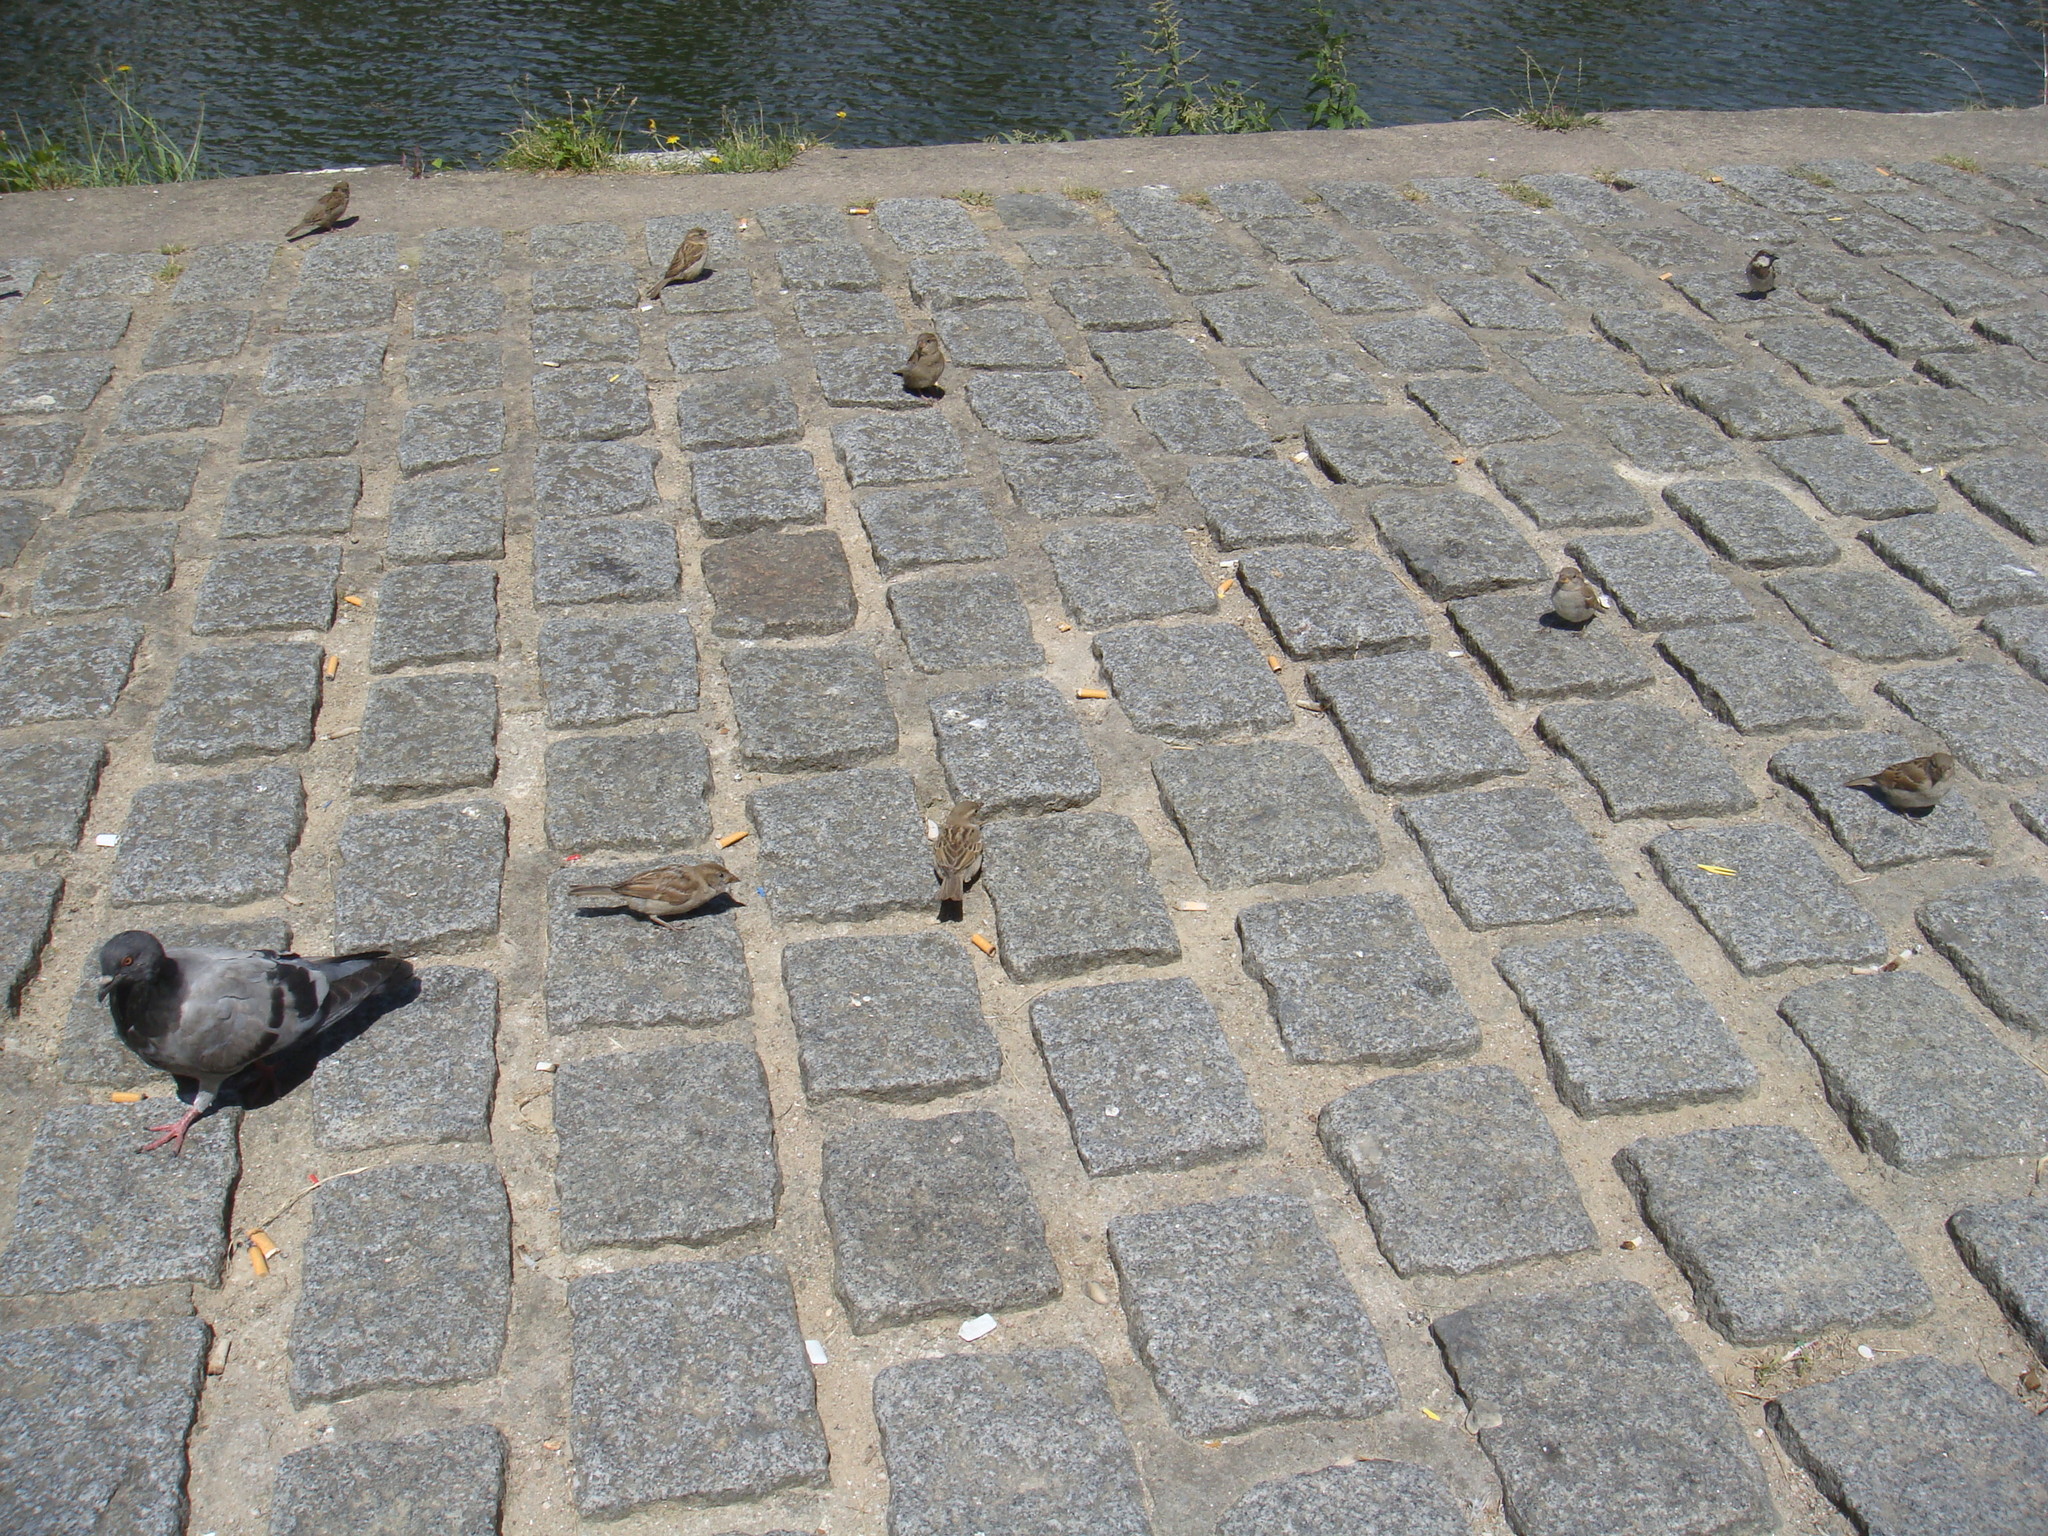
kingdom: Animalia
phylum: Chordata
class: Aves
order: Passeriformes
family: Passeridae
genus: Passer
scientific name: Passer domesticus
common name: House sparrow
